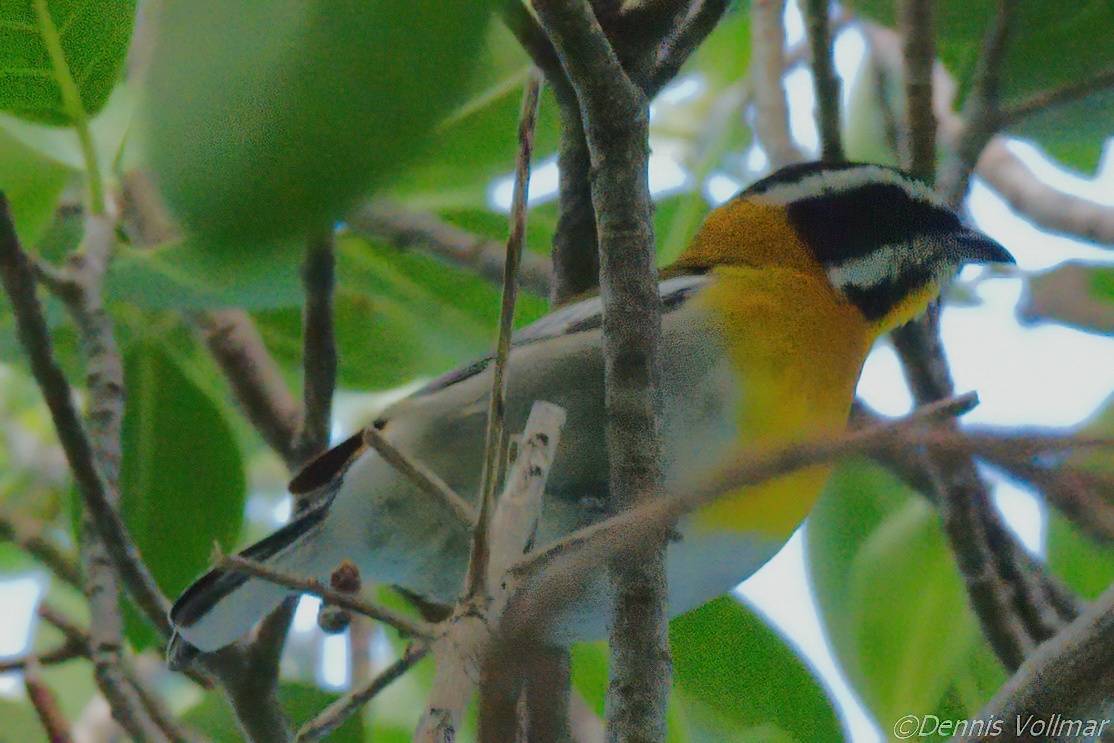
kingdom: Animalia
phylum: Chordata
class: Aves
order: Passeriformes
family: Spindalidae
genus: Spindalis
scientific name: Spindalis zena
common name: Western spindalis
